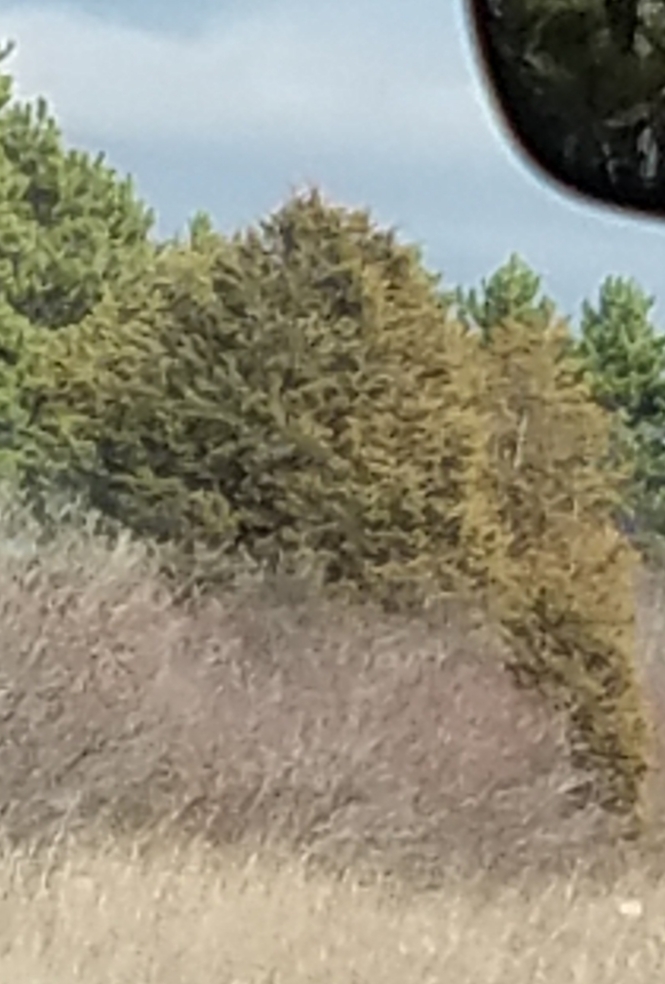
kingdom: Plantae
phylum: Tracheophyta
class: Pinopsida
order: Pinales
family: Cupressaceae
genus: Juniperus
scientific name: Juniperus virginiana
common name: Red juniper
